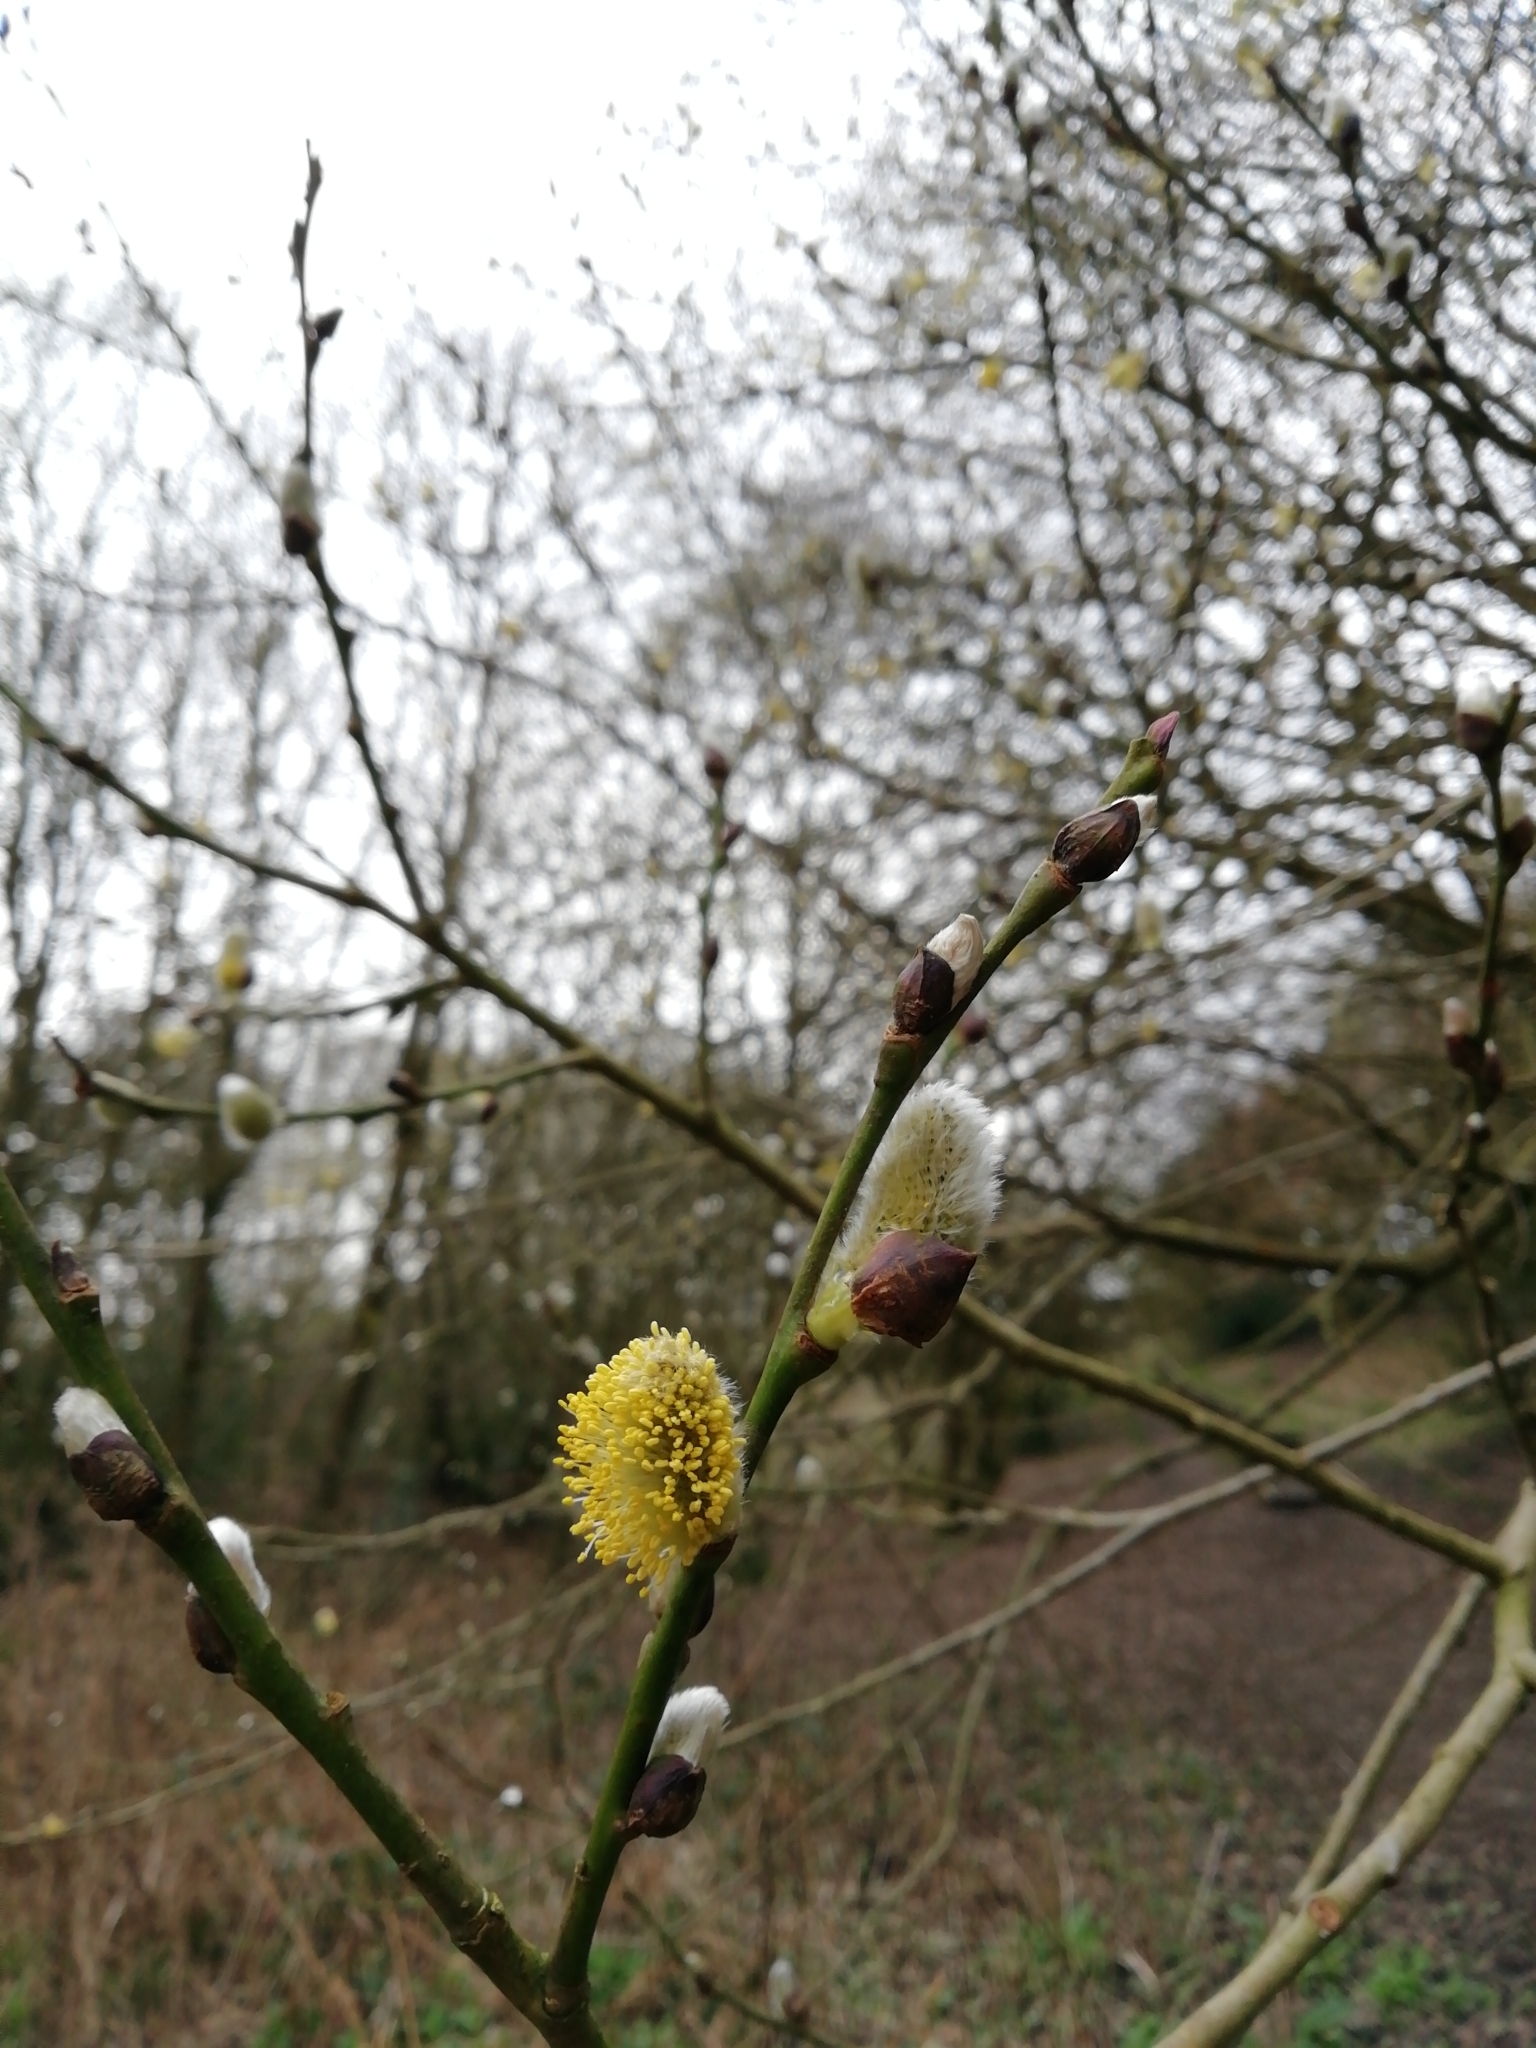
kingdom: Plantae
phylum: Tracheophyta
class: Magnoliopsida
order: Malpighiales
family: Salicaceae
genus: Salix
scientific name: Salix caprea
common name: Goat willow
